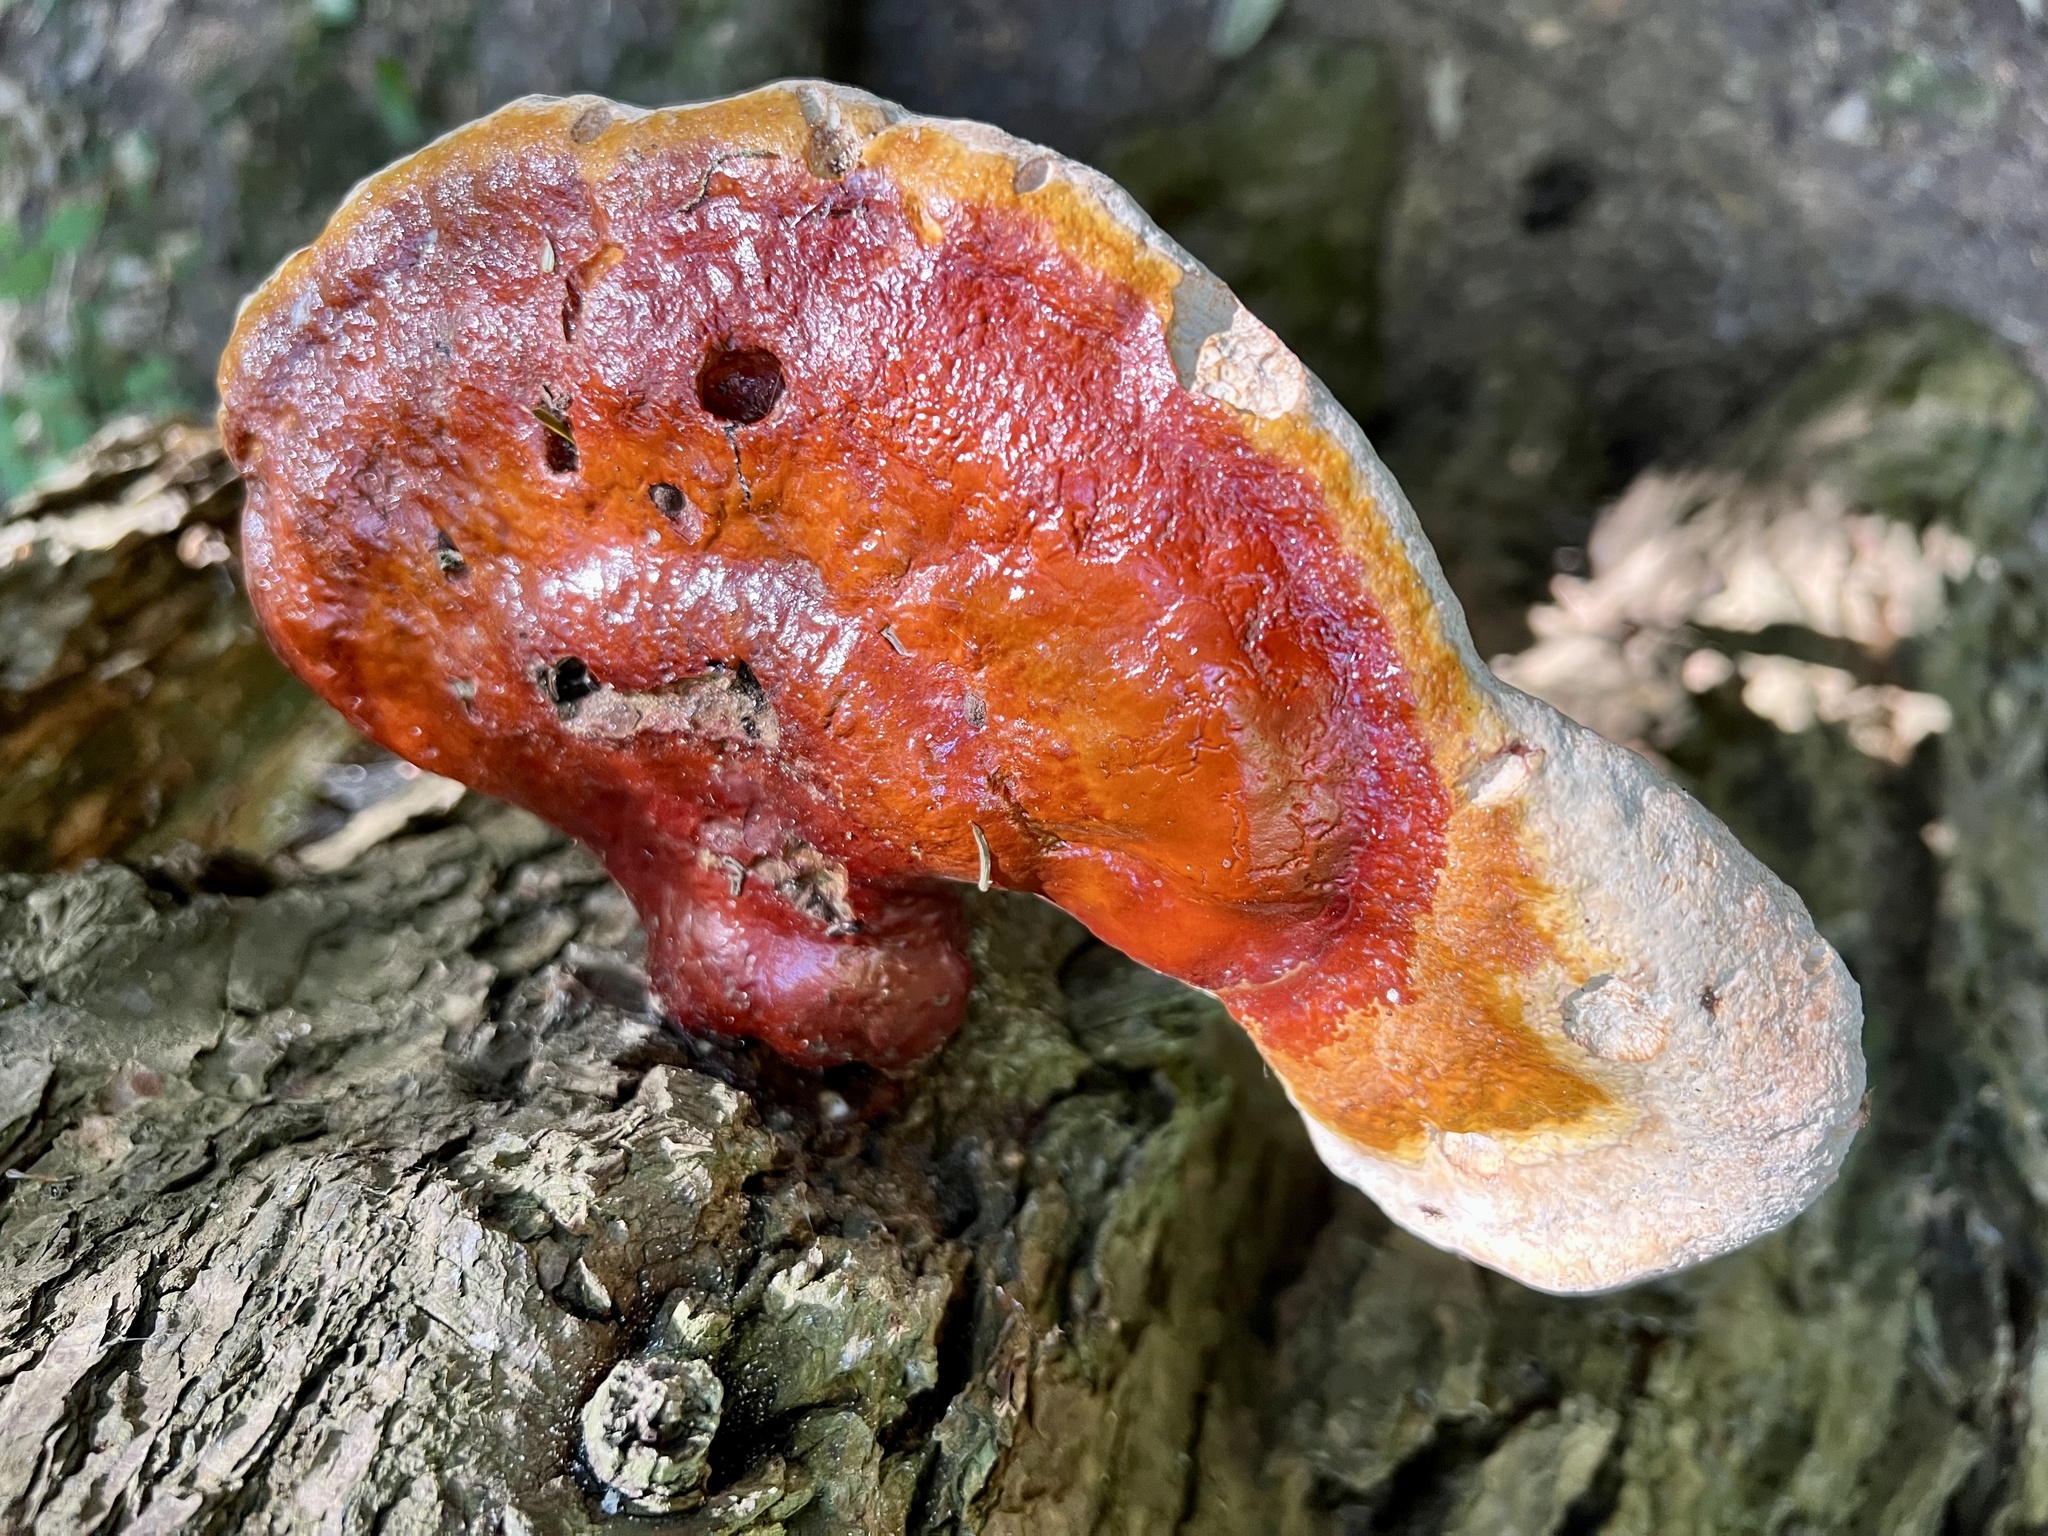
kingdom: Fungi
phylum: Basidiomycota
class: Agaricomycetes
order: Polyporales
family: Polyporaceae
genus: Ganoderma
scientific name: Ganoderma tsugae
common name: Hemlock varnish shelf
